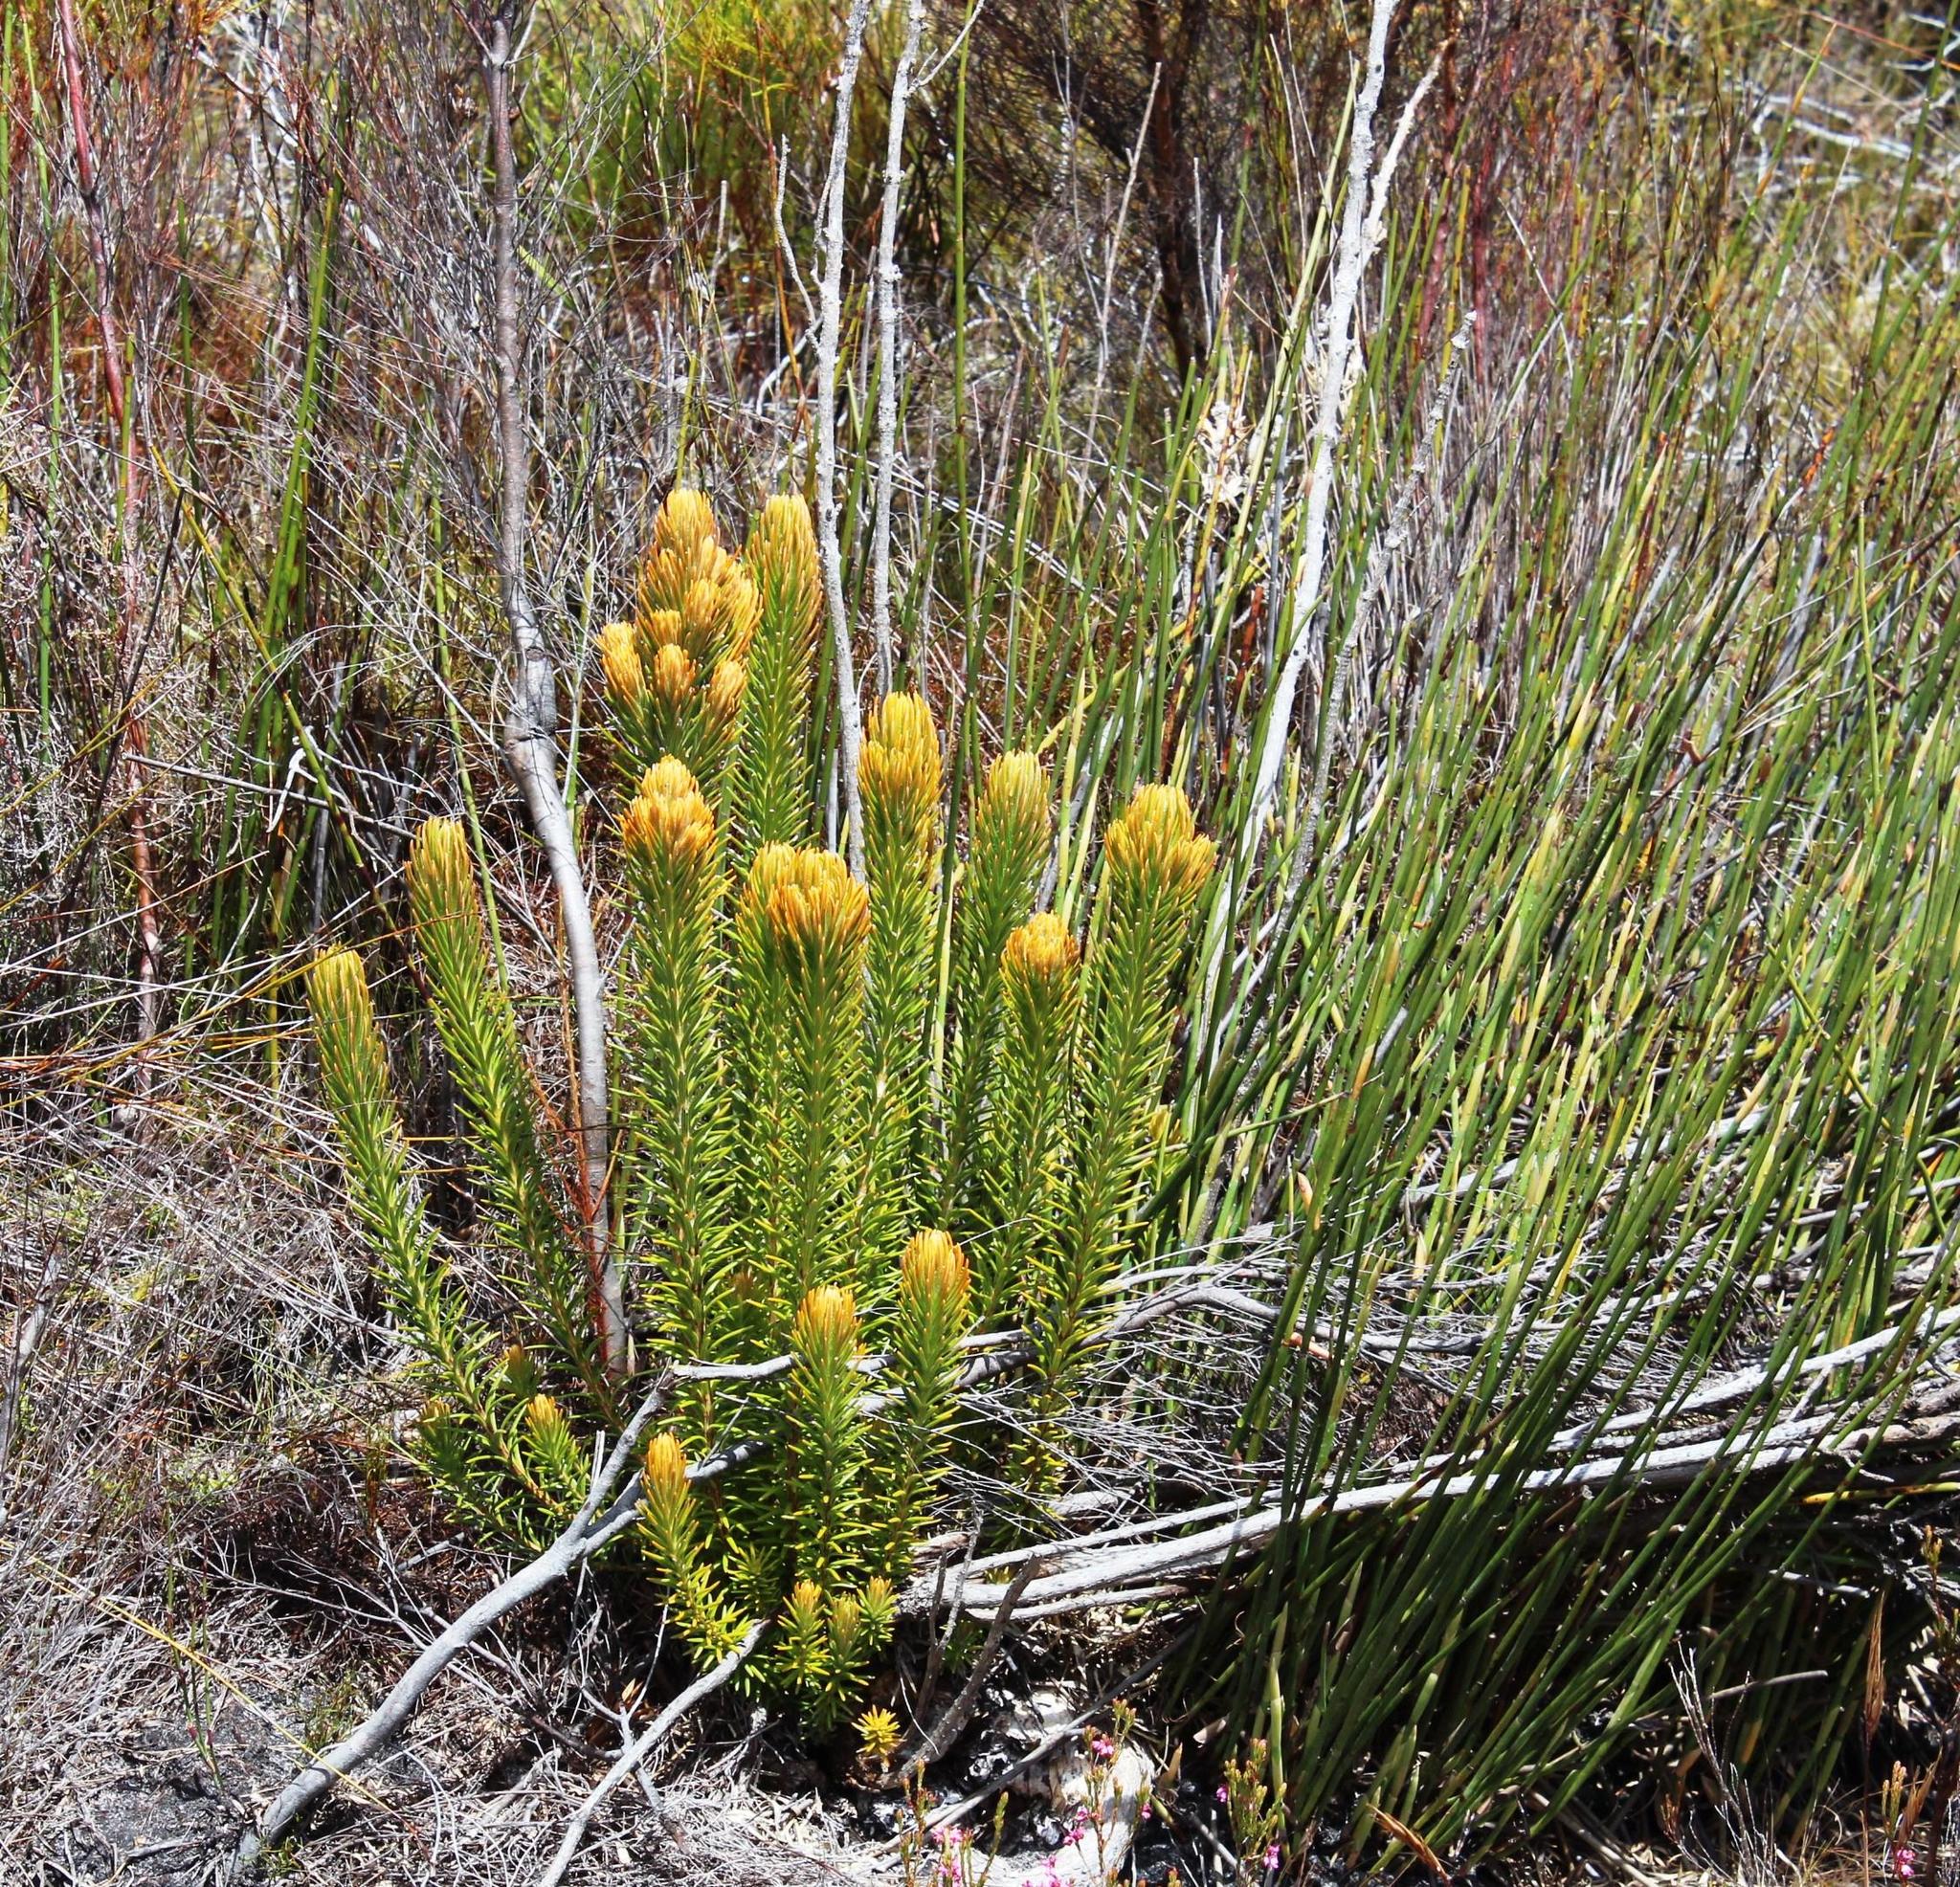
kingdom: Plantae
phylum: Tracheophyta
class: Magnoliopsida
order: Lamiales
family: Stilbaceae
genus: Retzia
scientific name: Retzia capensis
